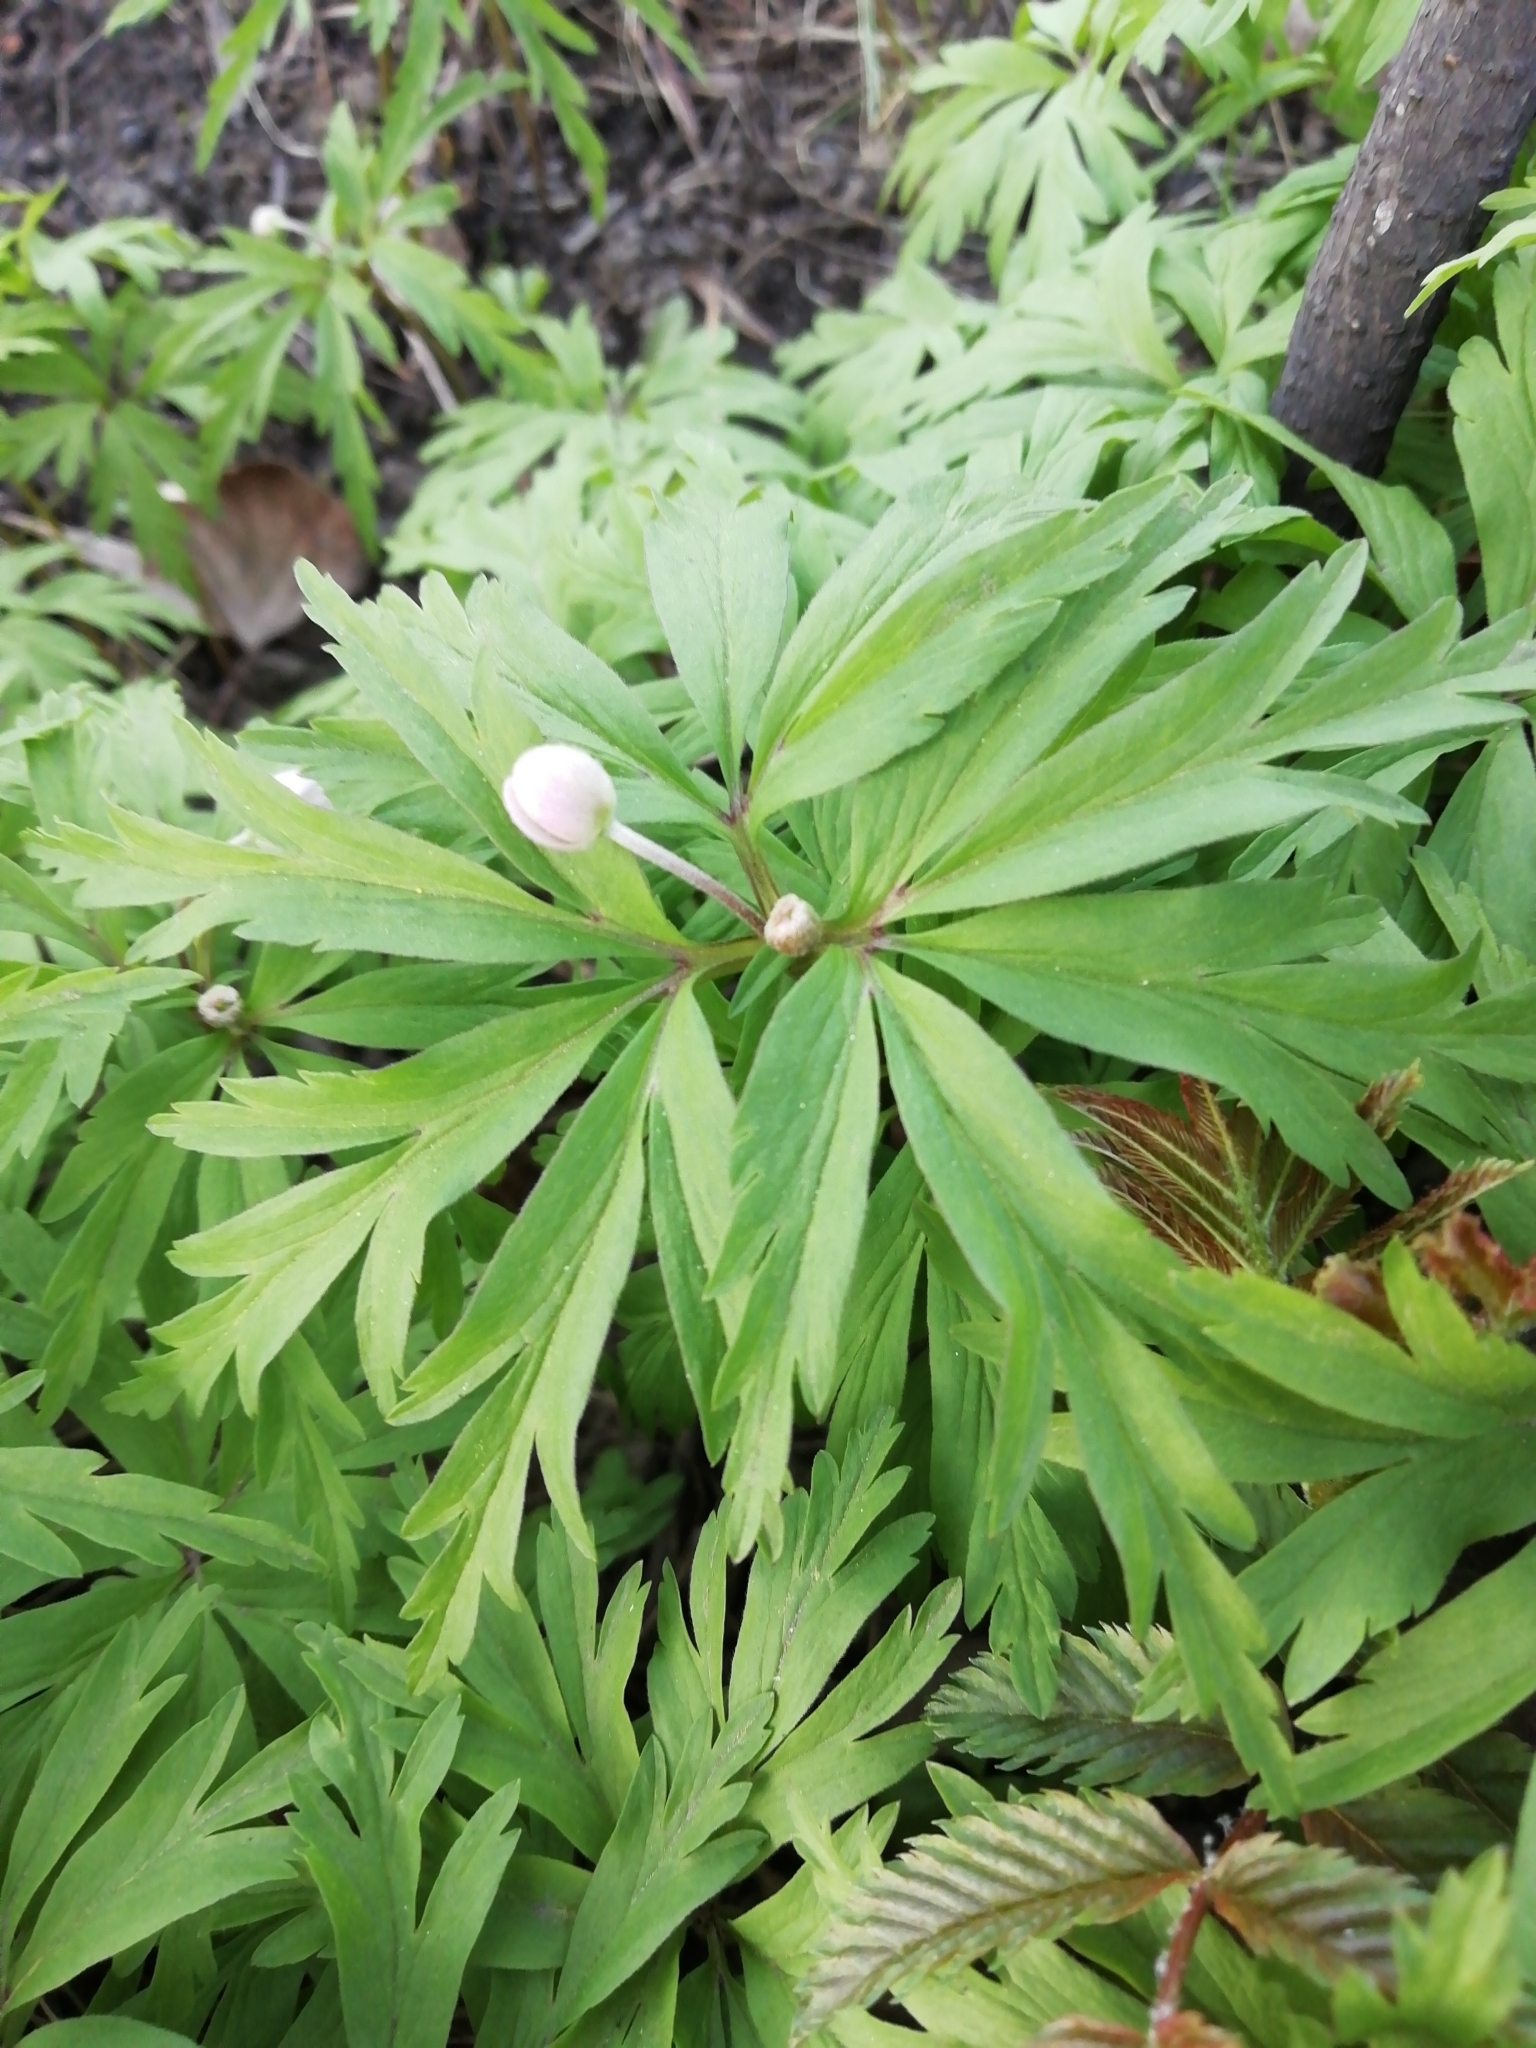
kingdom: Plantae
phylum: Tracheophyta
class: Magnoliopsida
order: Ranunculales
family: Ranunculaceae
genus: Anemone
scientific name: Anemone caerulea
